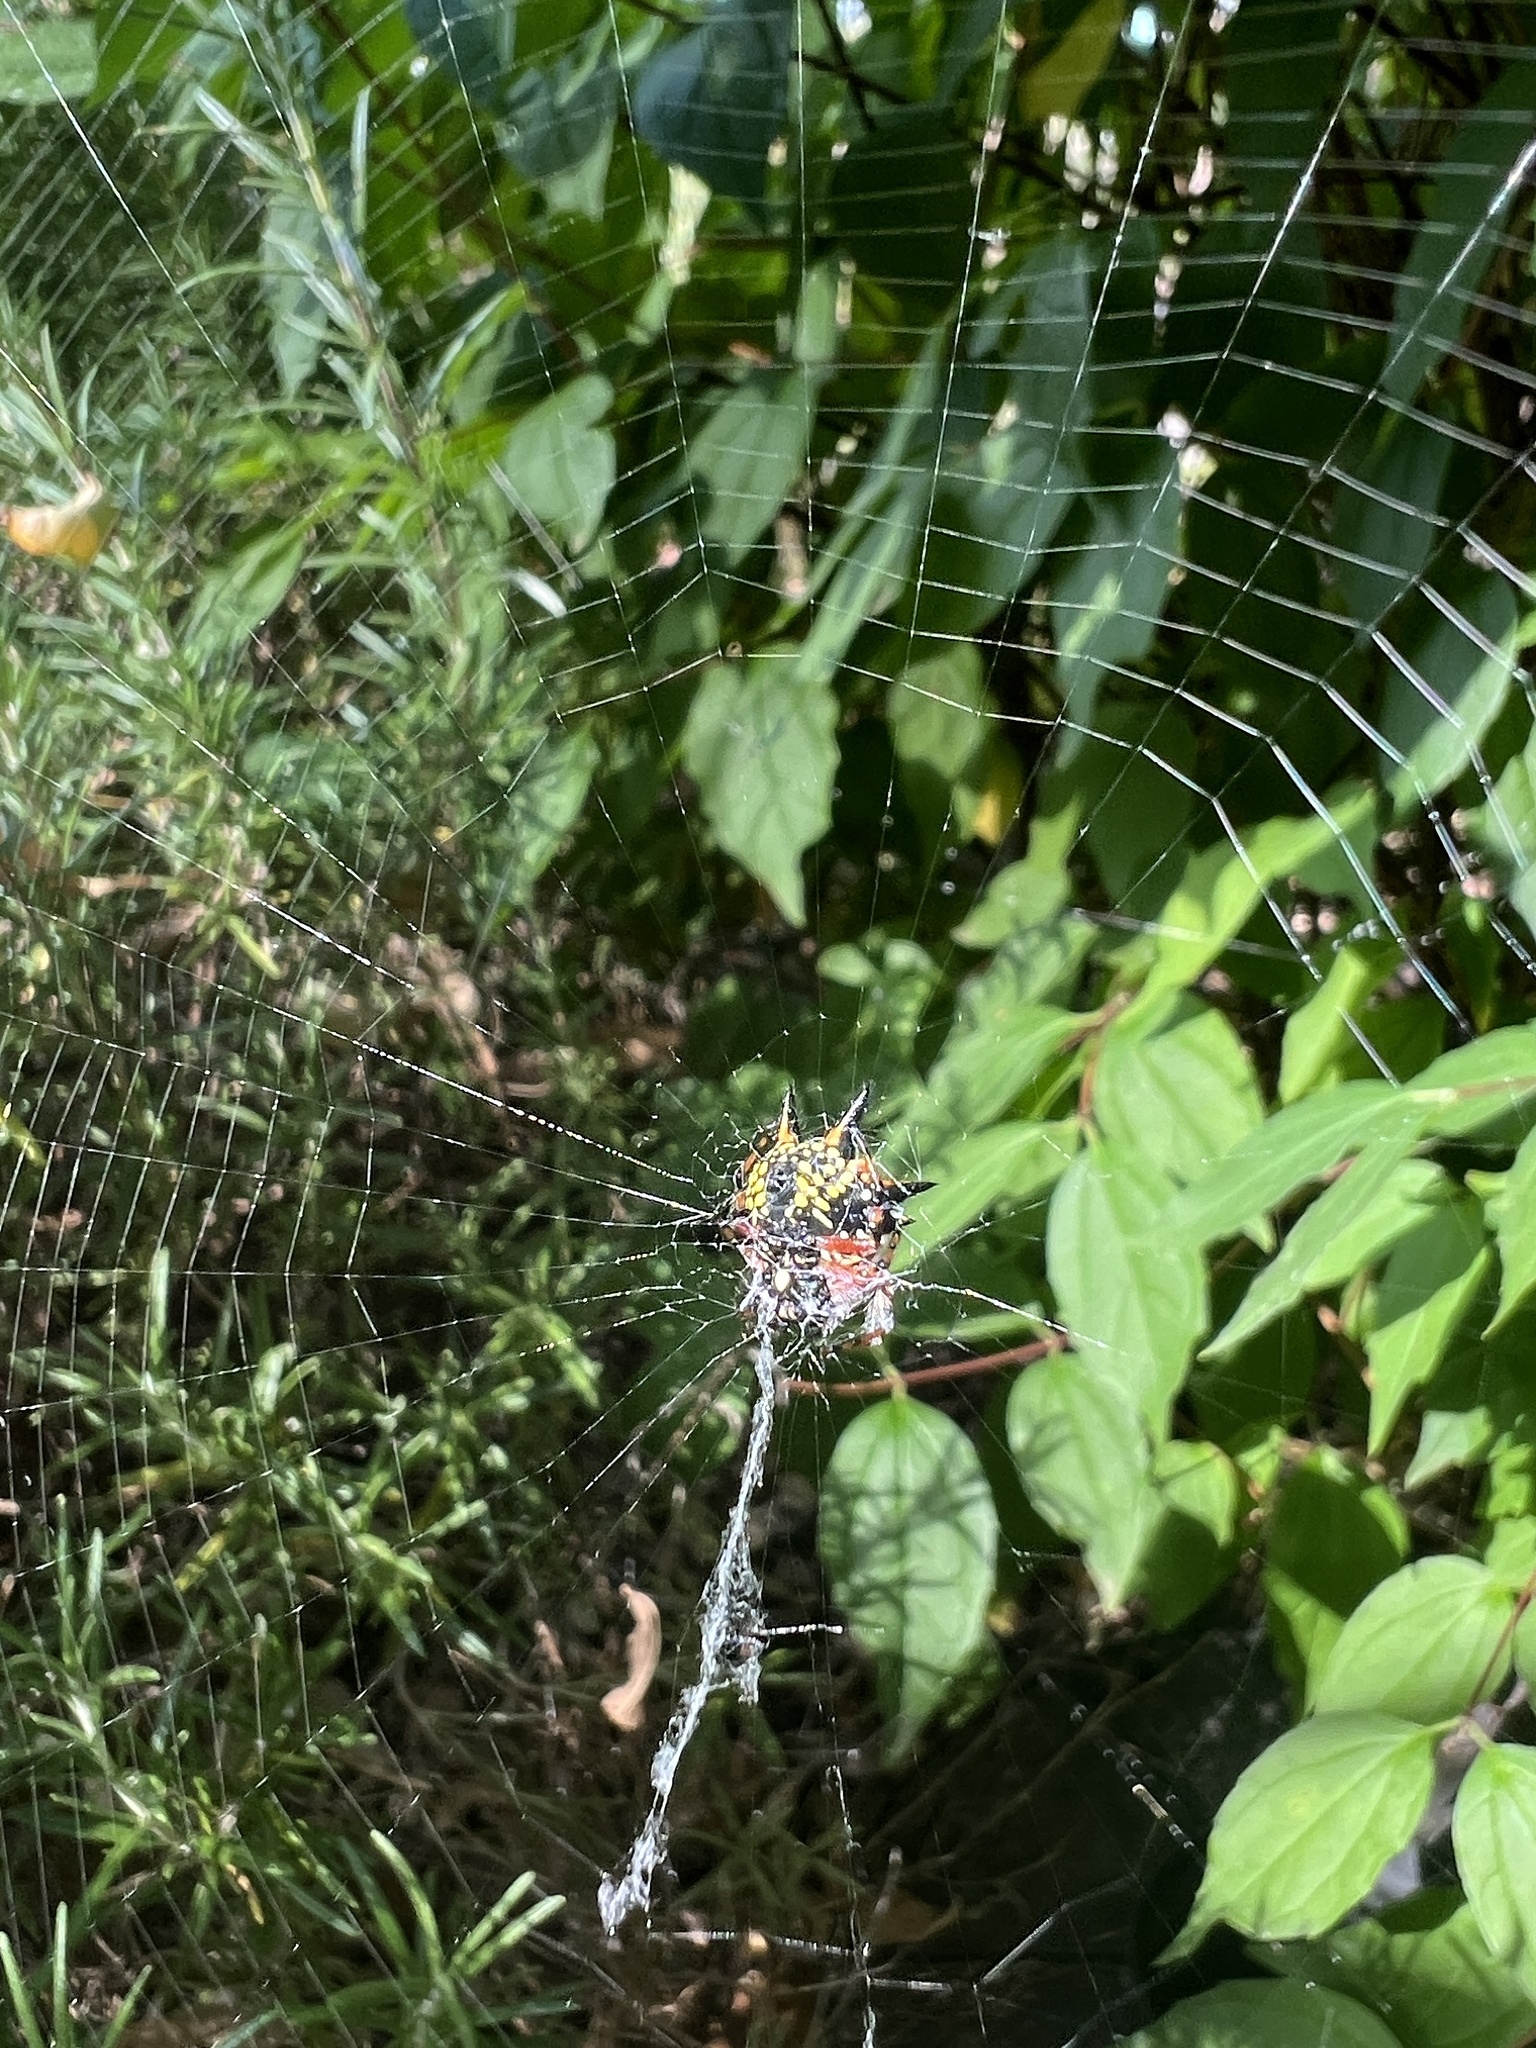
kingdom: Animalia
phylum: Arthropoda
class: Arachnida
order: Araneae
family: Araneidae
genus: Austracantha
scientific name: Austracantha minax
